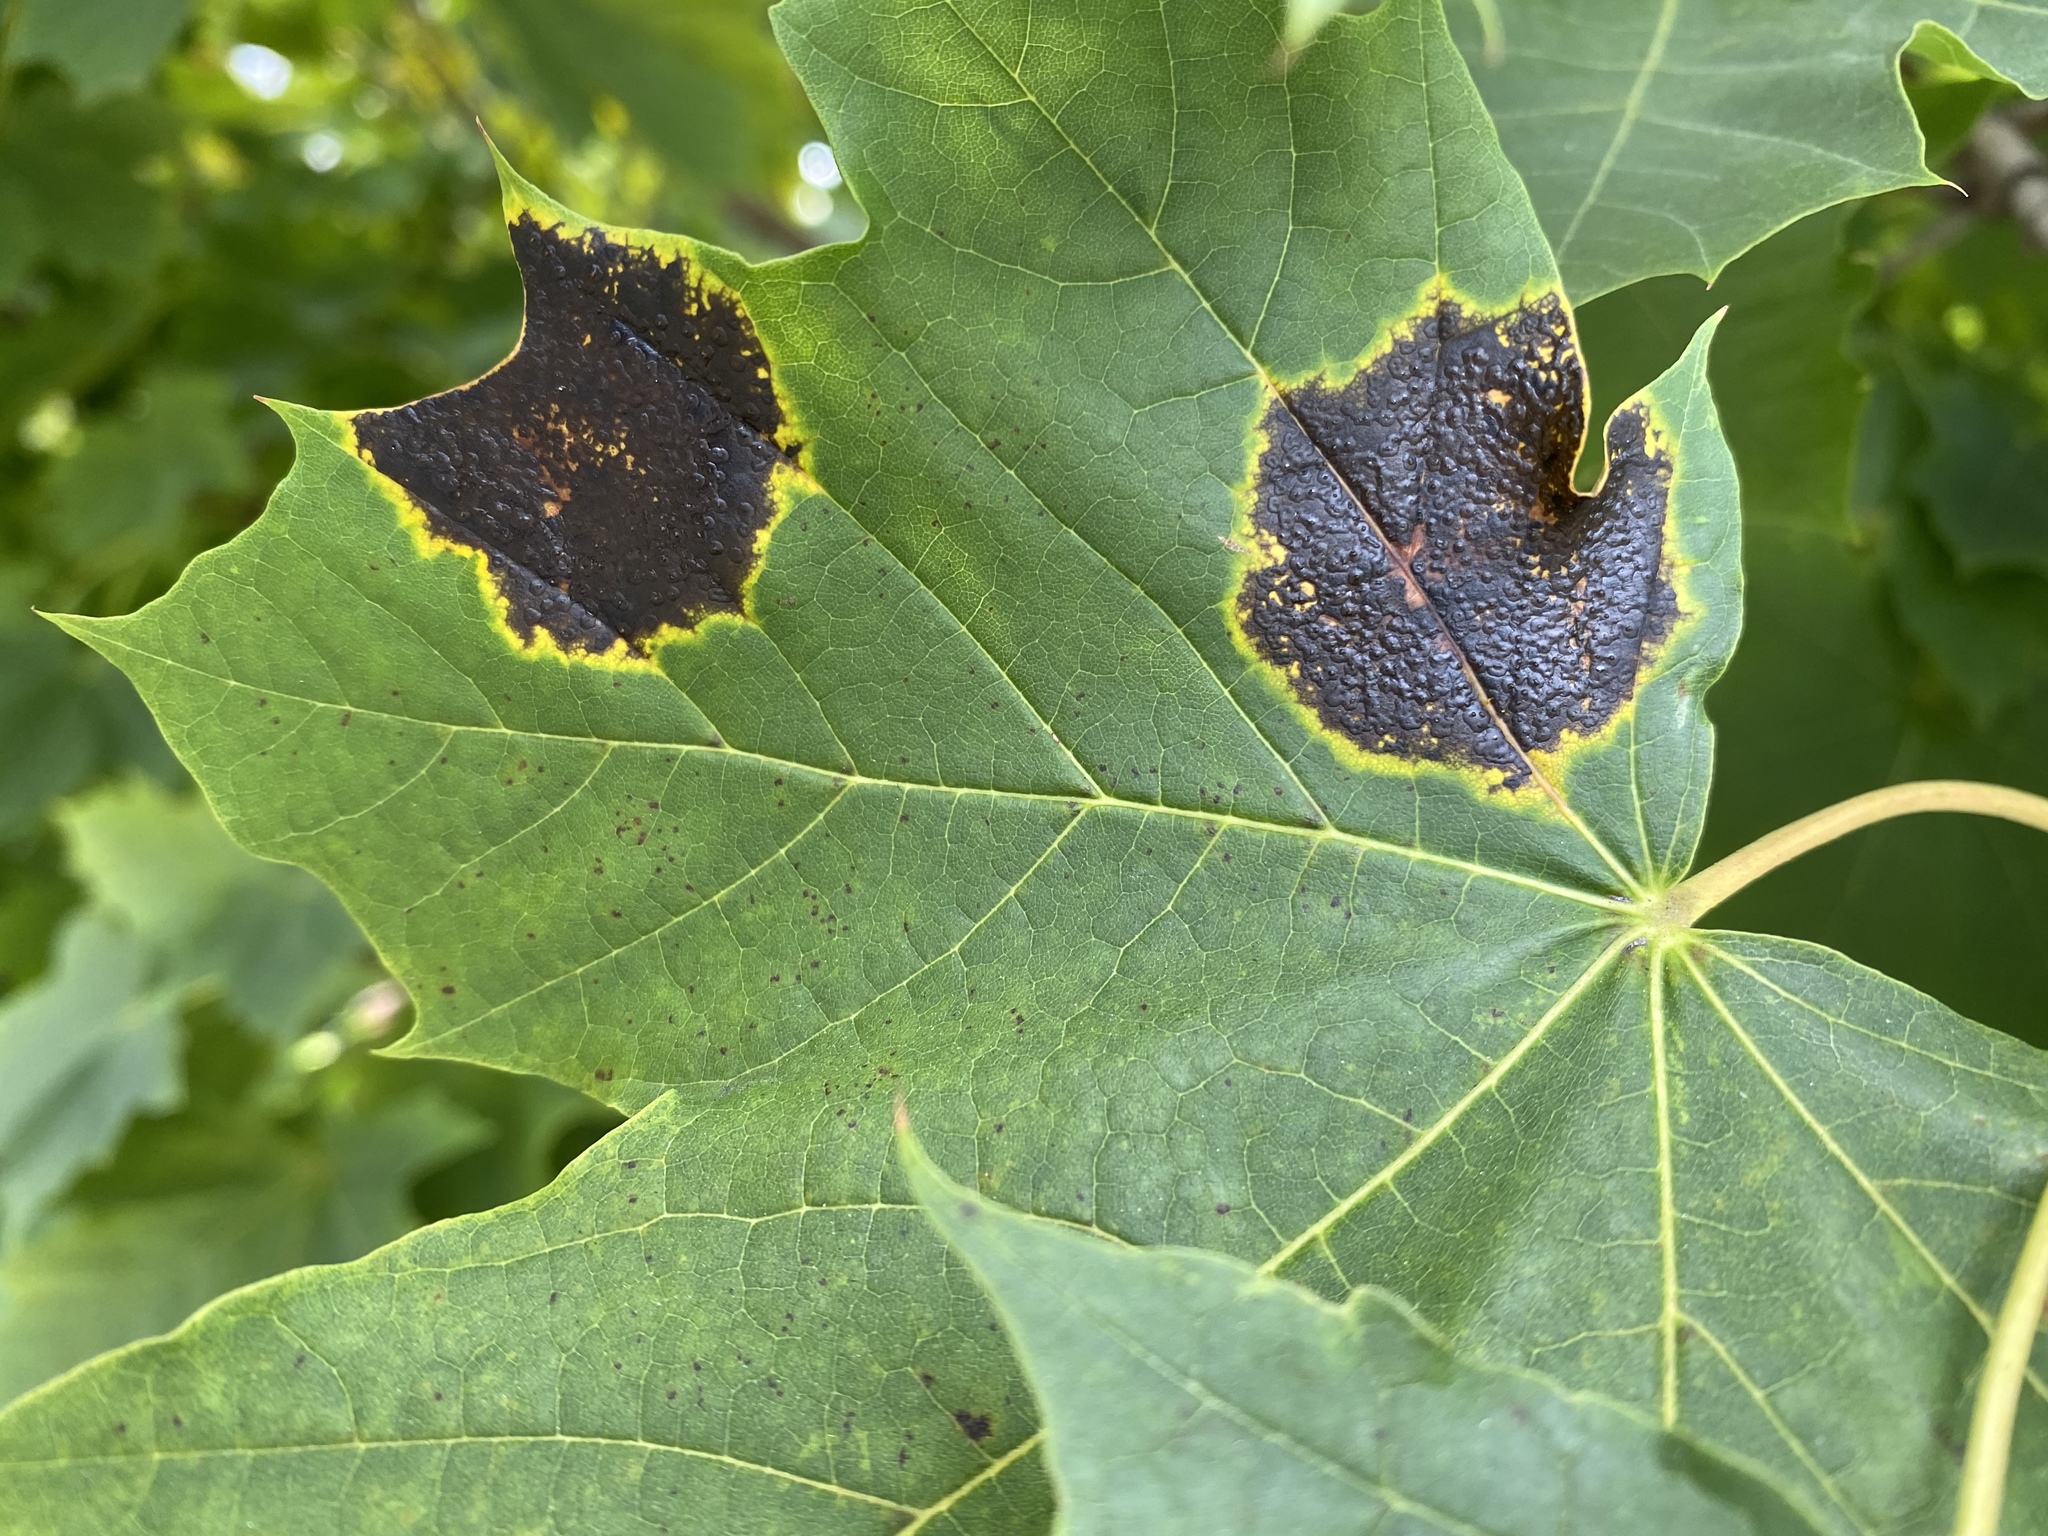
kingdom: Fungi
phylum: Ascomycota
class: Leotiomycetes
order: Rhytismatales
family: Rhytismataceae
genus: Rhytisma
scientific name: Rhytisma acerinum
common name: European tar spot
